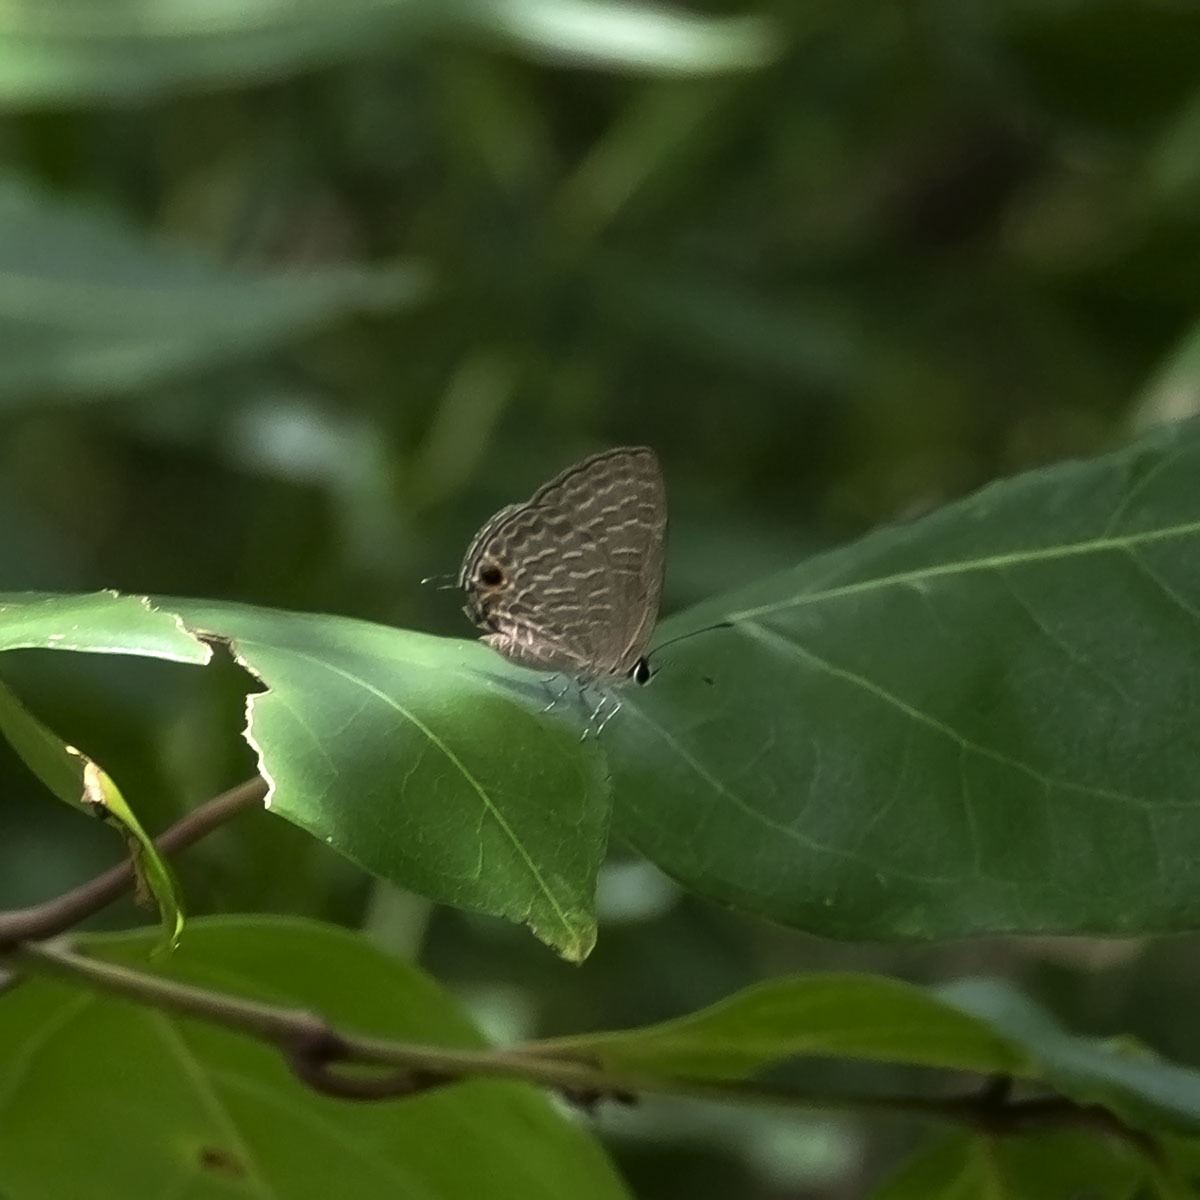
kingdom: Animalia
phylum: Arthropoda
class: Insecta
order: Lepidoptera
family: Lycaenidae
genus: Jamides
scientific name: Jamides bochus
